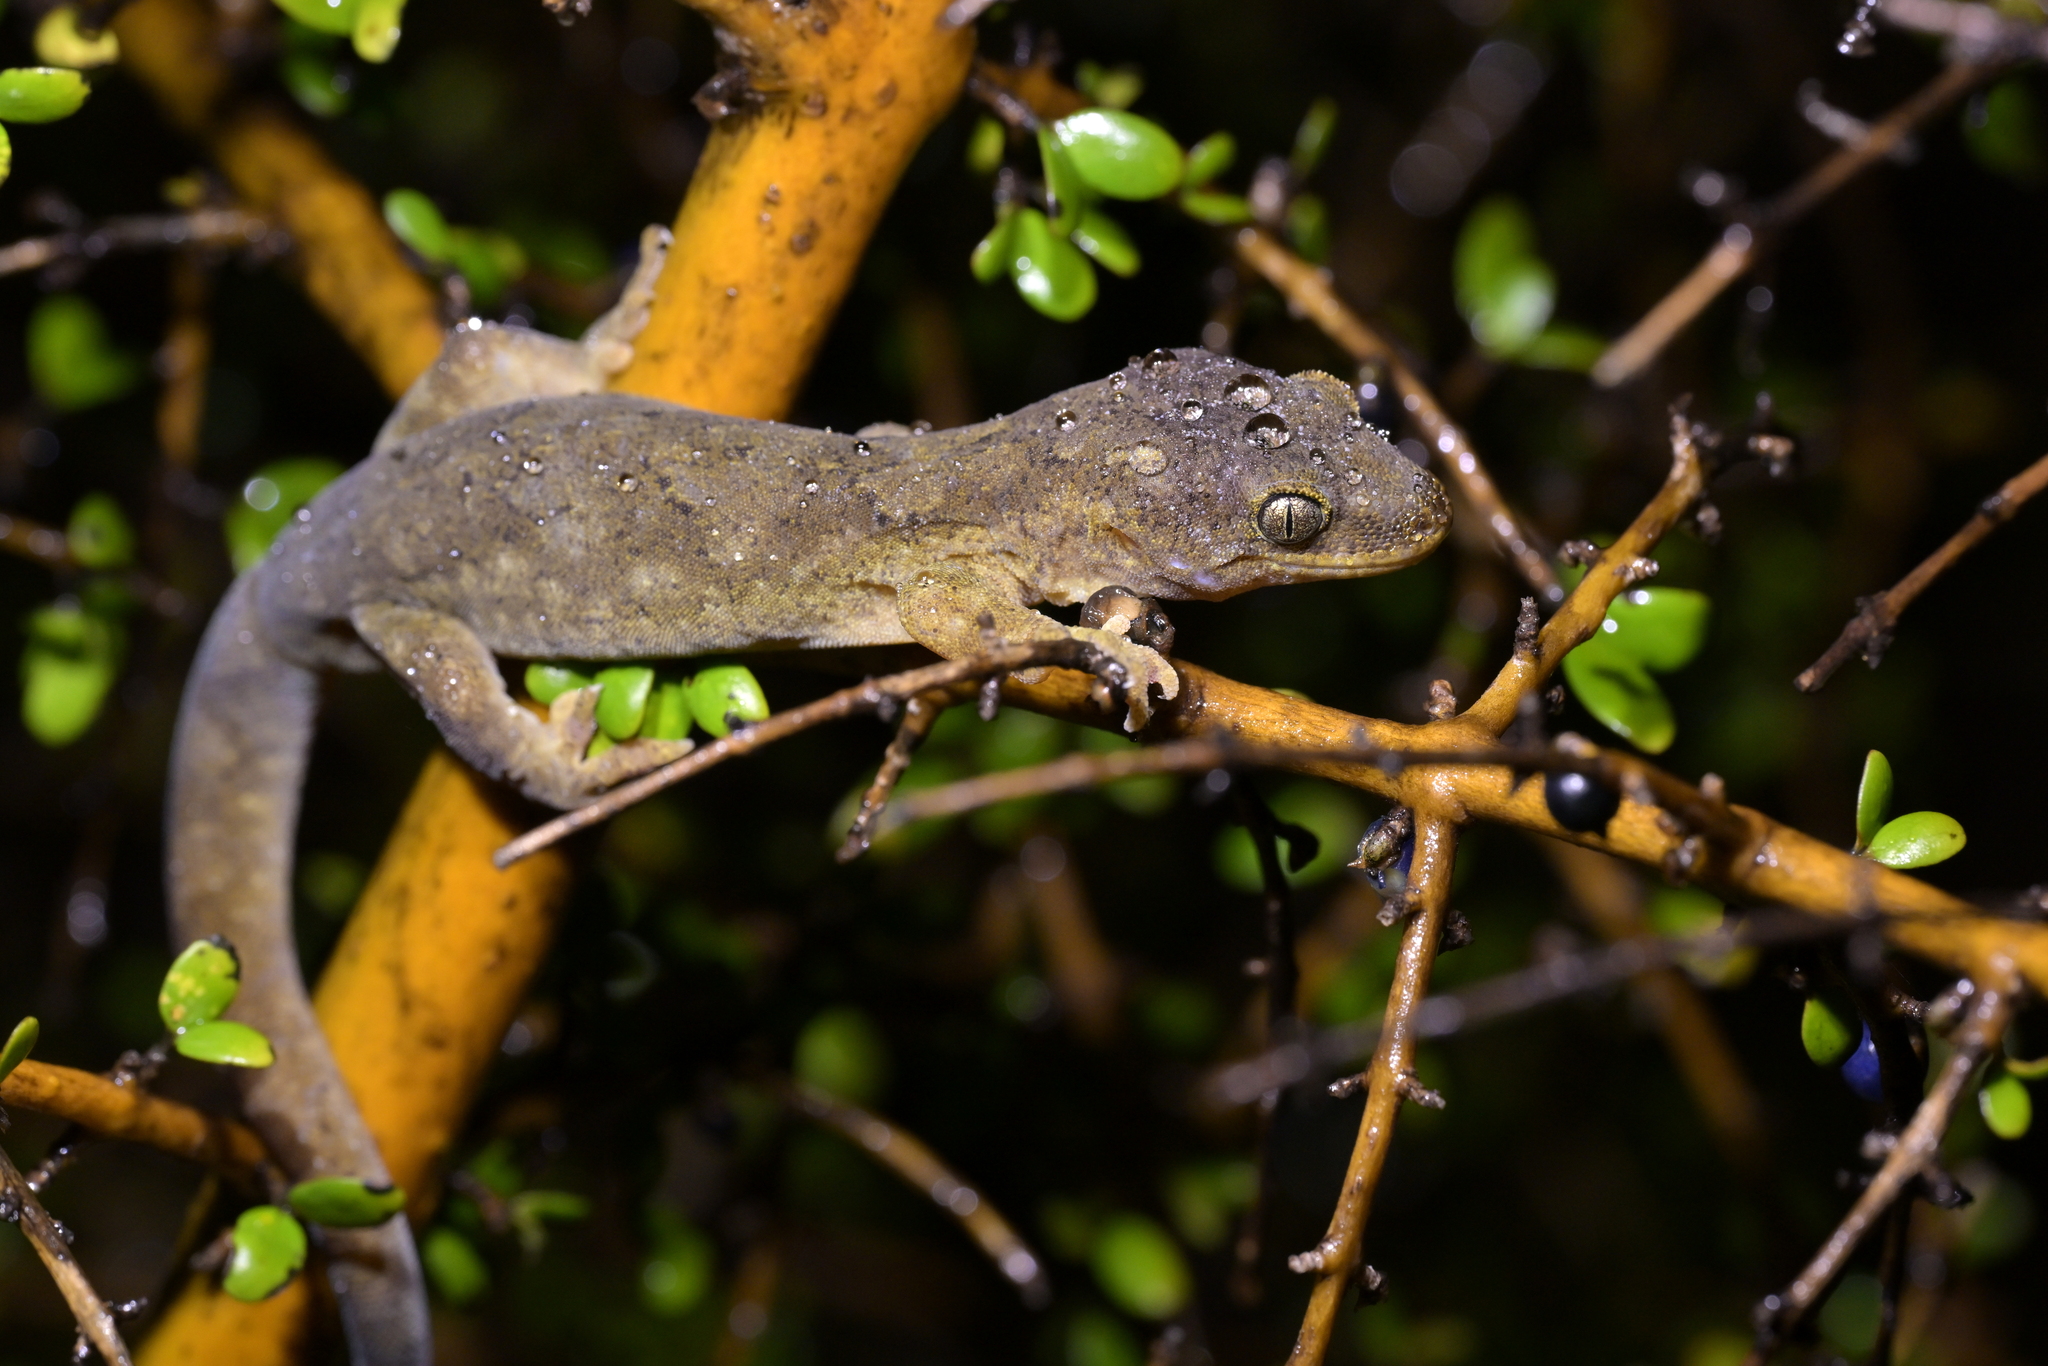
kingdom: Animalia
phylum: Chordata
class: Squamata
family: Diplodactylidae
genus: Woodworthia
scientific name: Woodworthia maculata
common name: Raukawa gecko
